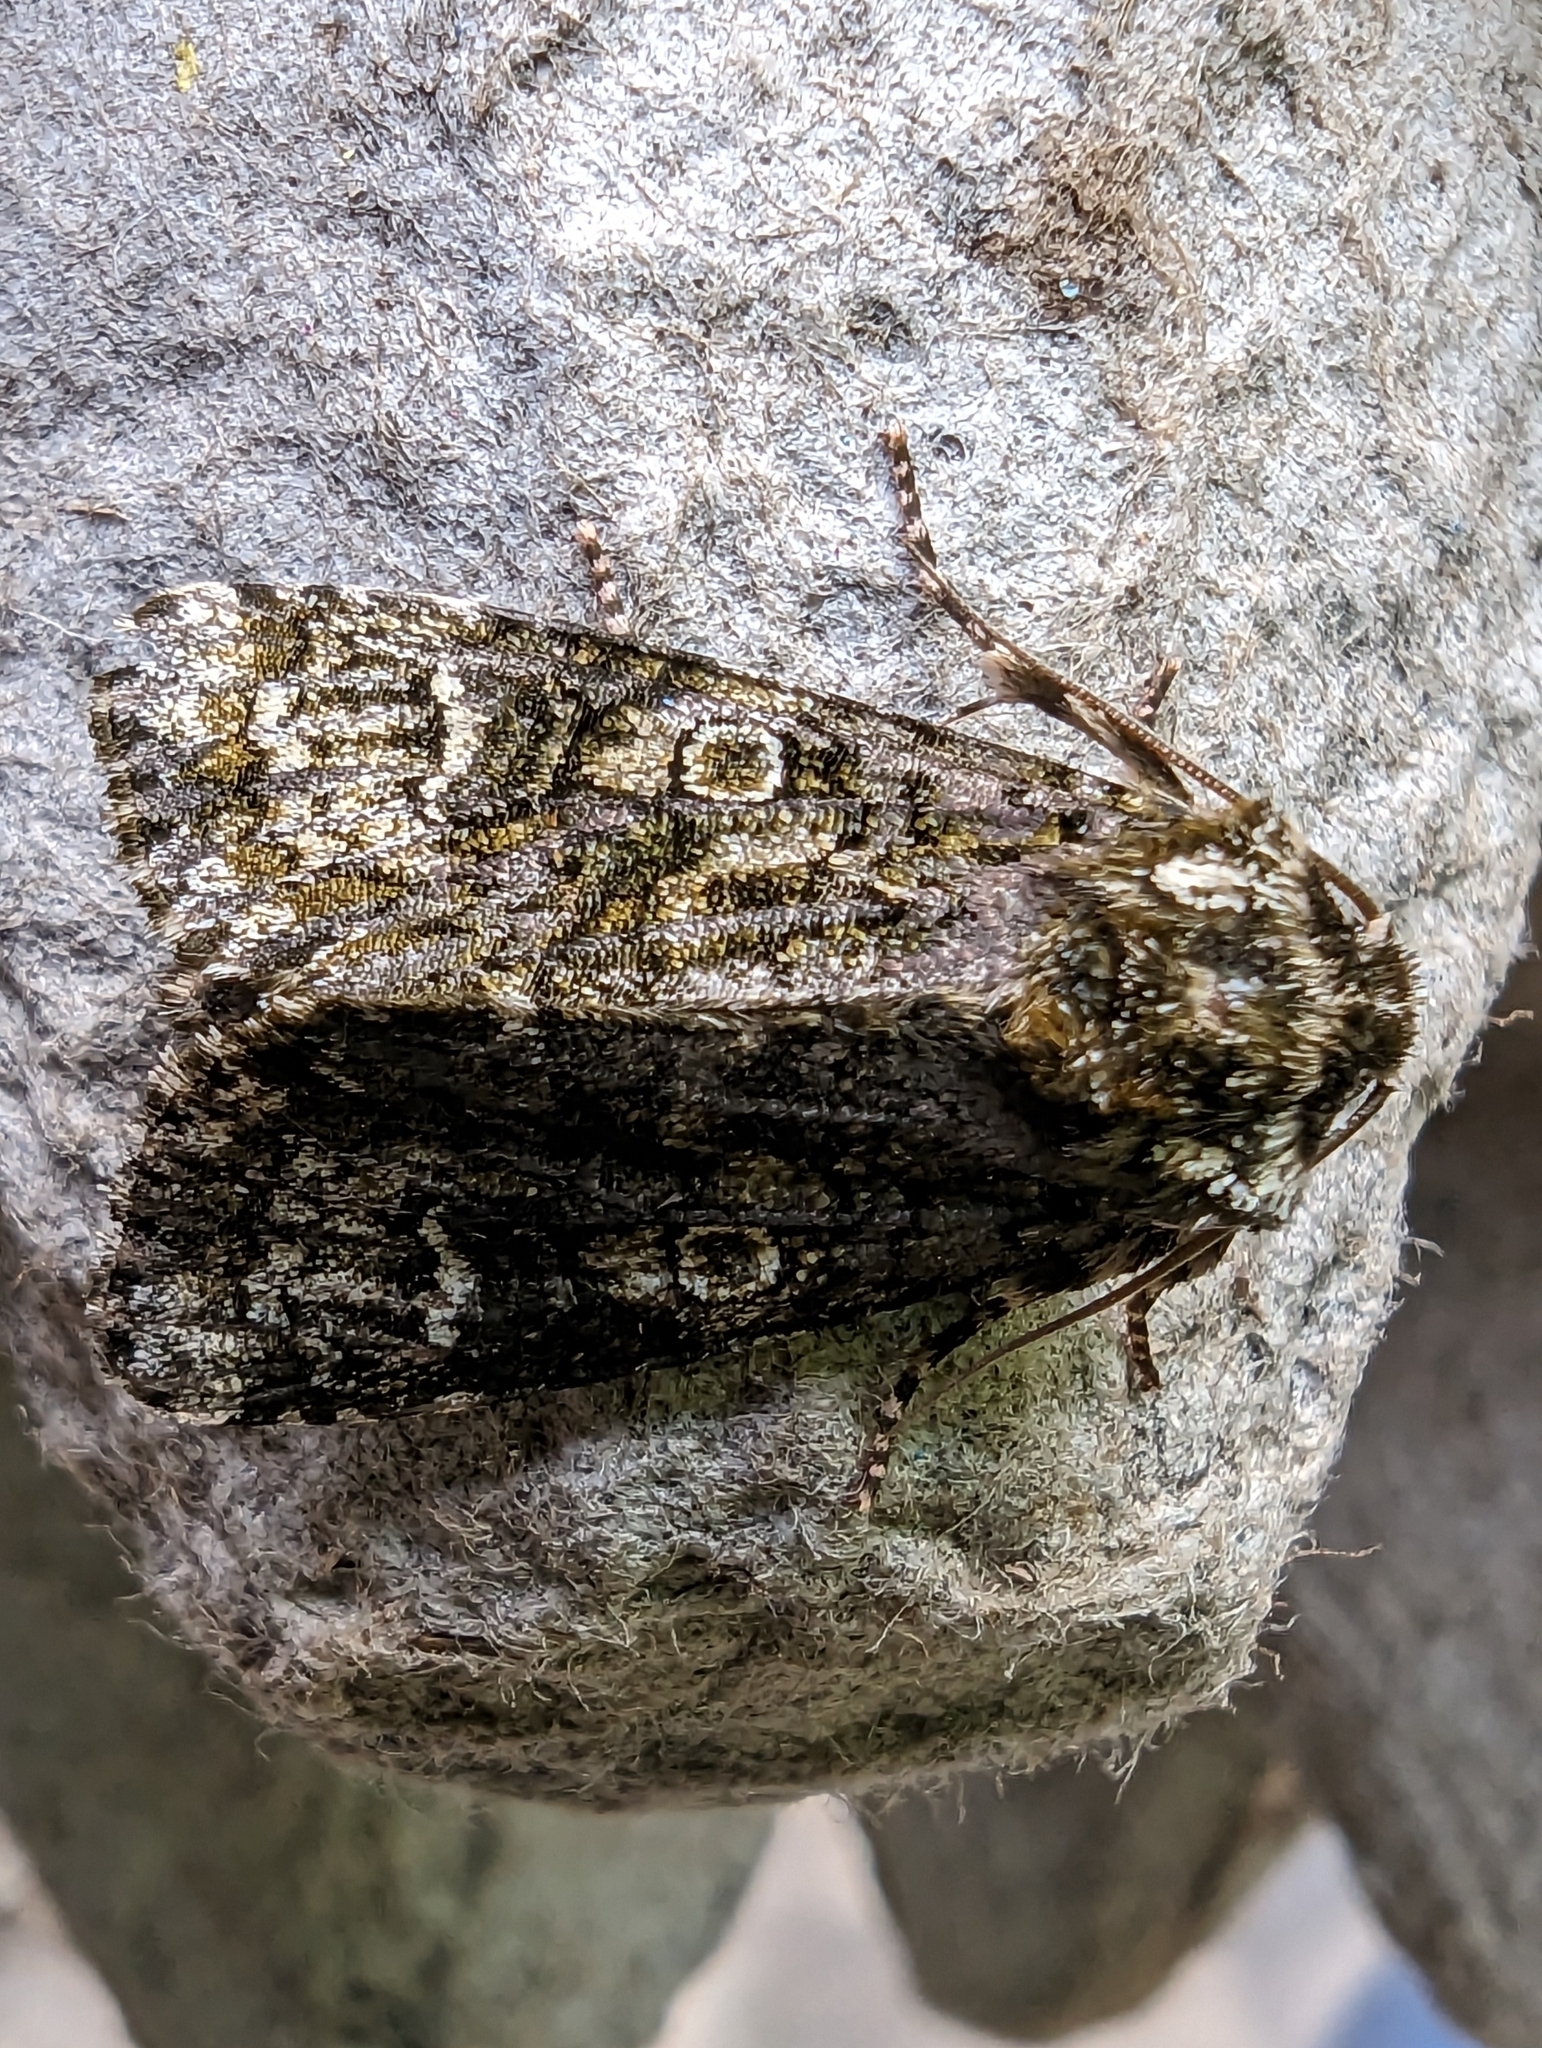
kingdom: Animalia
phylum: Arthropoda
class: Insecta
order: Lepidoptera
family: Noctuidae
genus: Craniophora
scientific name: Craniophora ligustri
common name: Coronet
